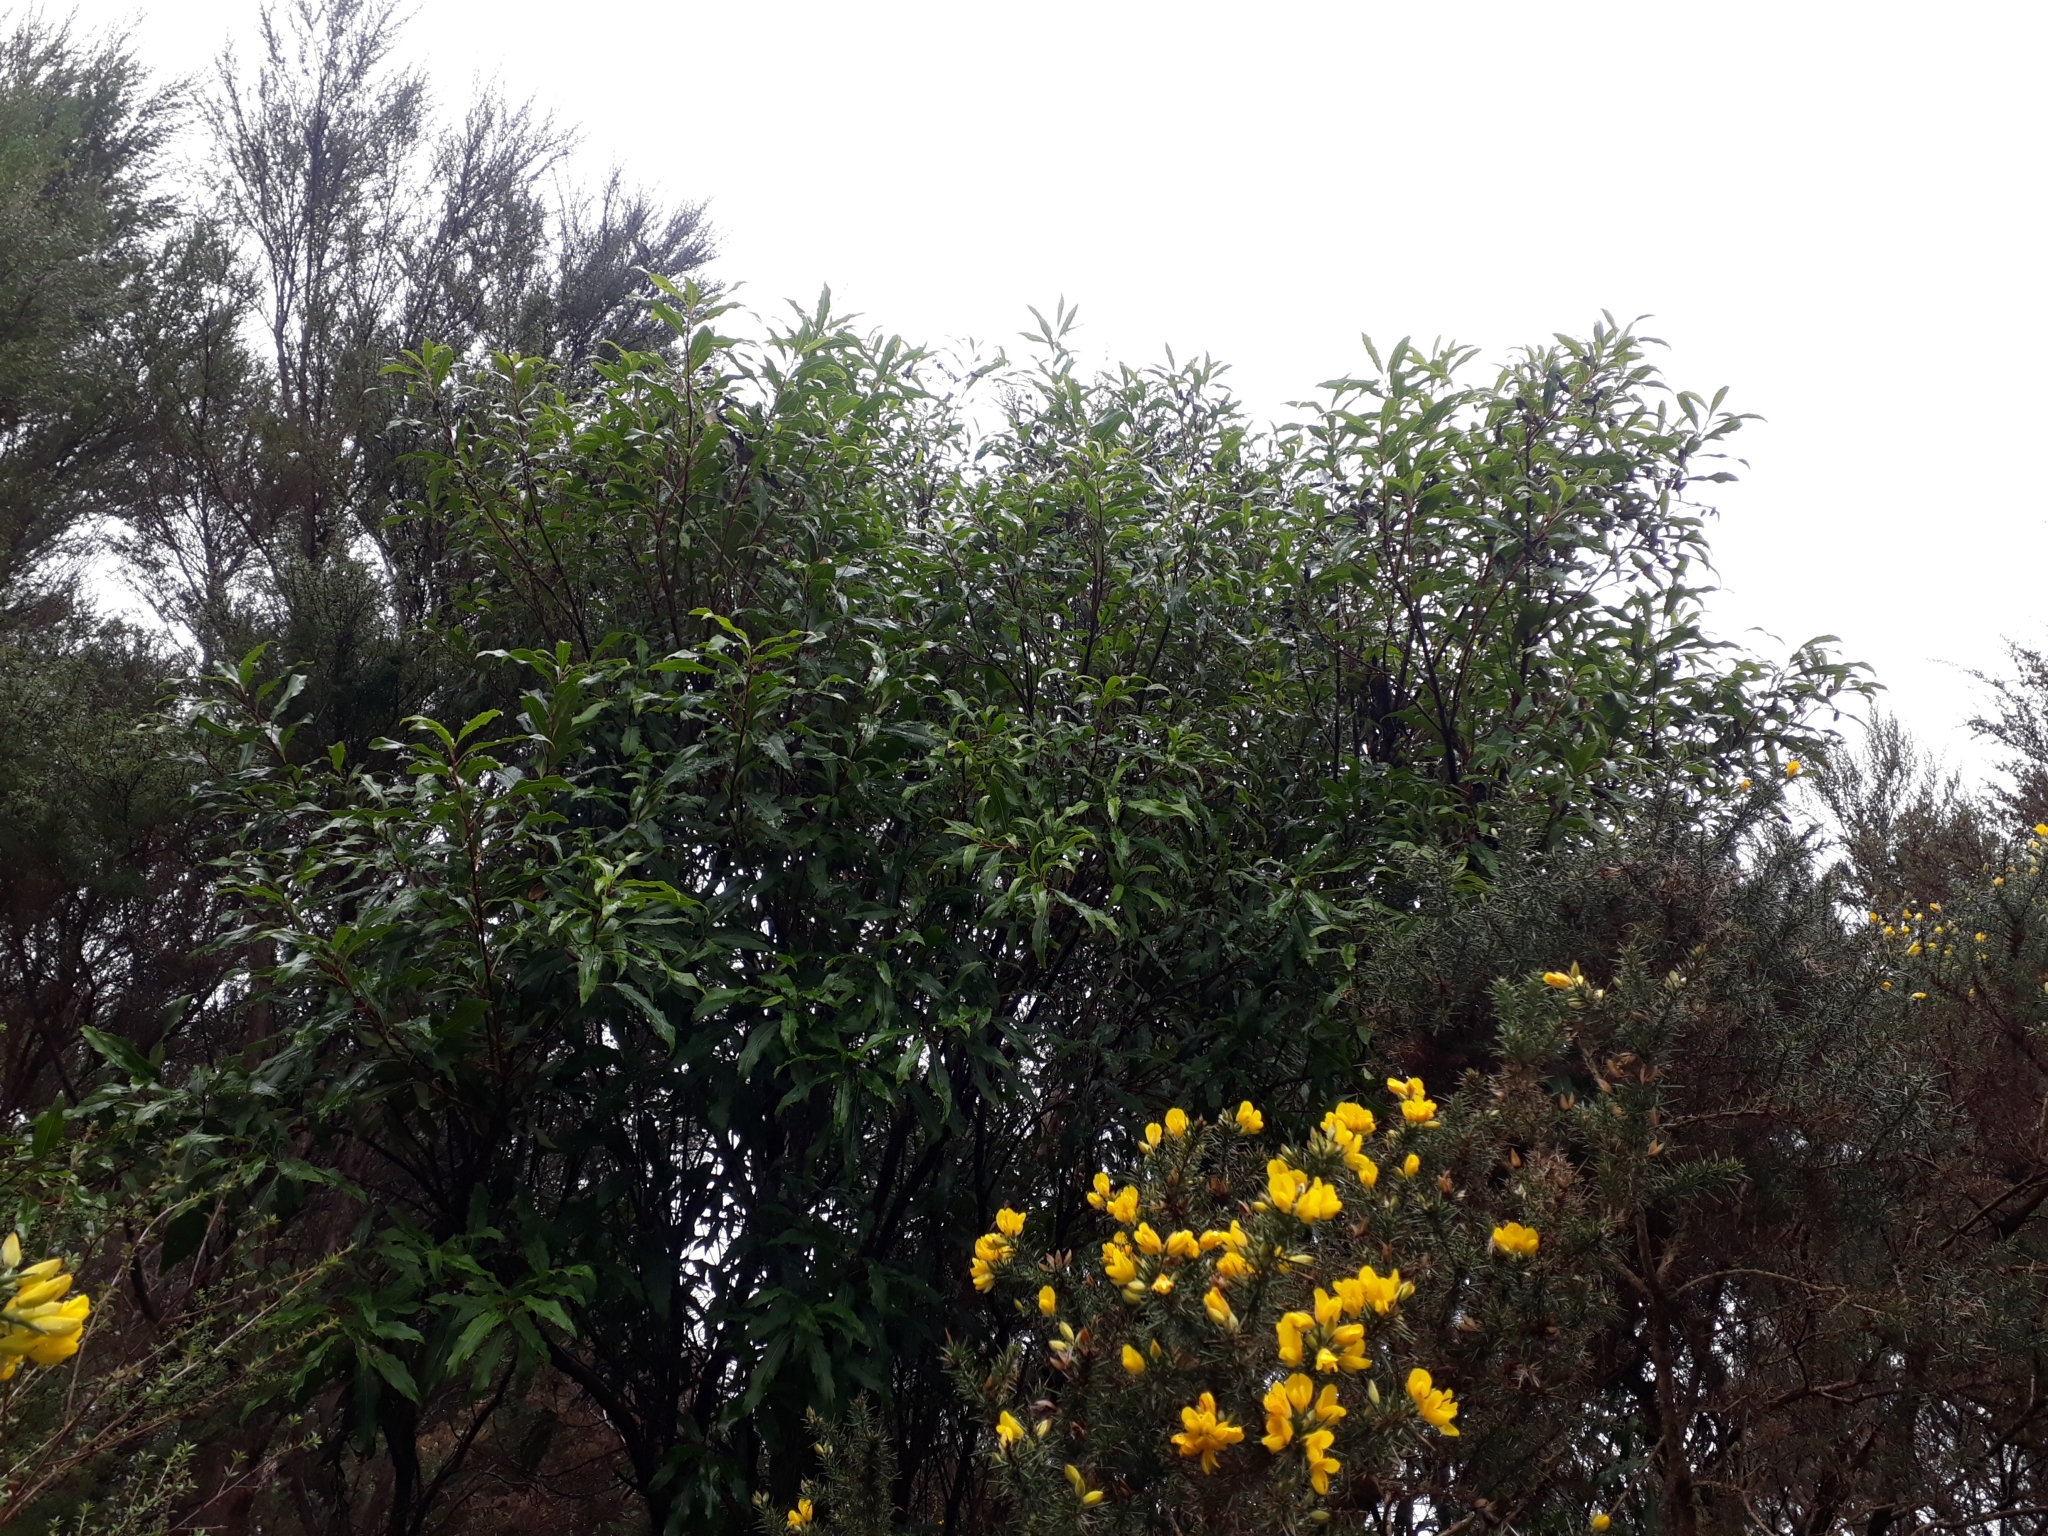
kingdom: Plantae
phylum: Tracheophyta
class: Magnoliopsida
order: Proteales
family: Proteaceae
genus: Lomatia
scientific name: Lomatia fraseri
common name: Forest lomatia
